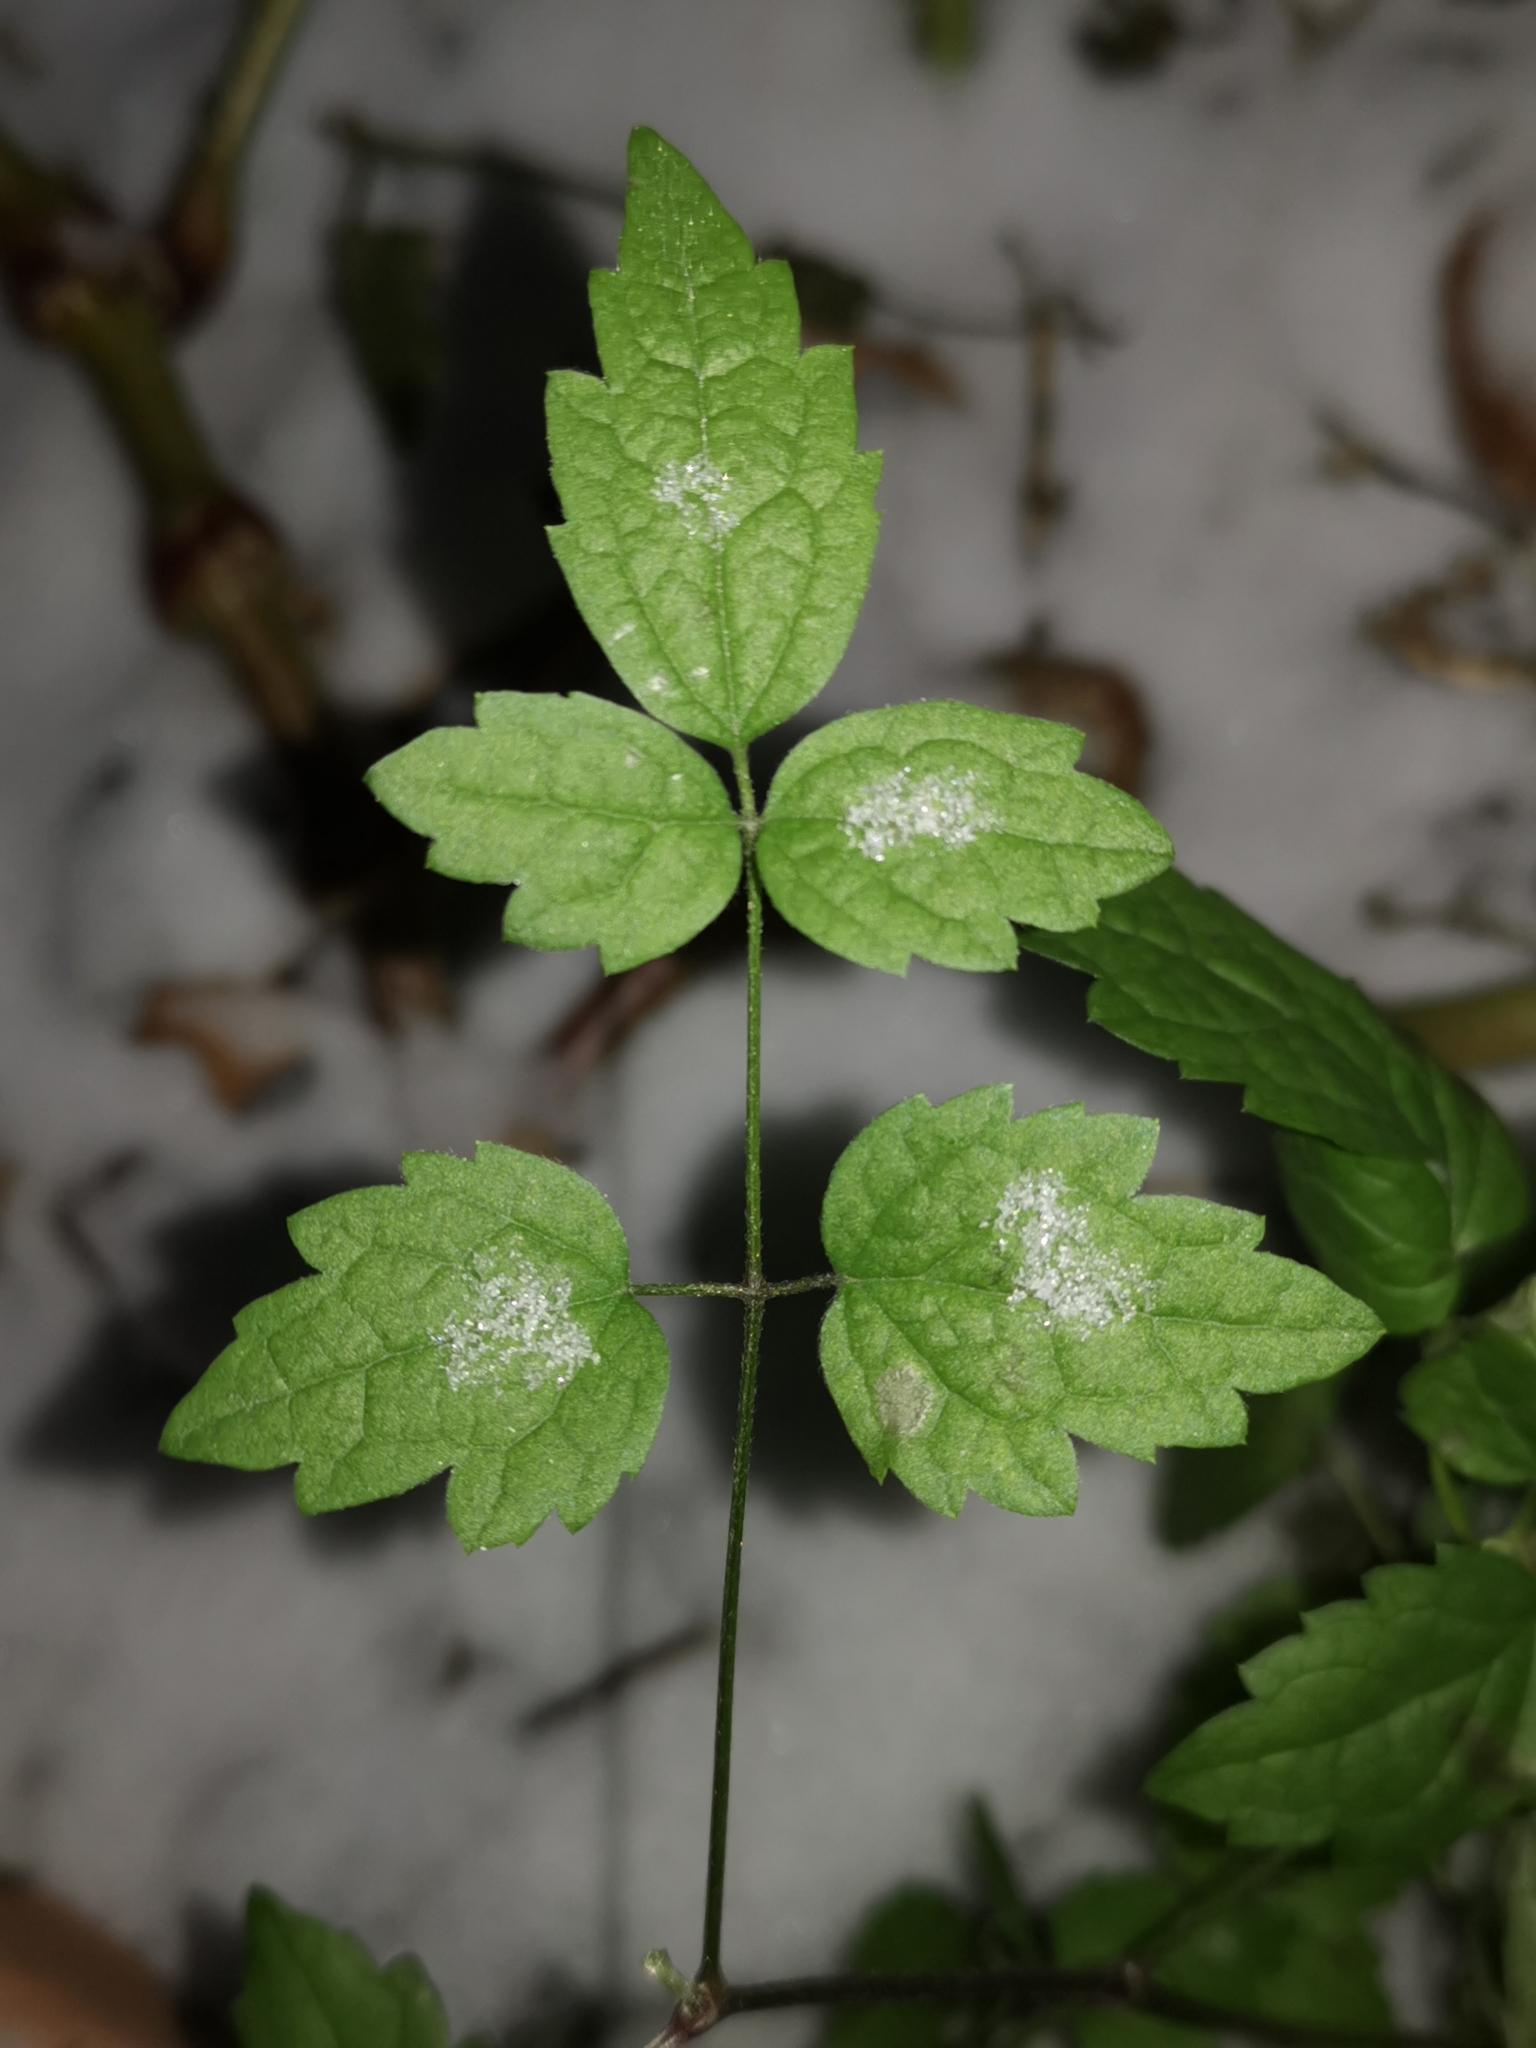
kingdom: Plantae
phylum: Tracheophyta
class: Magnoliopsida
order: Ranunculales
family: Ranunculaceae
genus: Clematis
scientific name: Clematis vitalba
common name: Evergreen clematis
